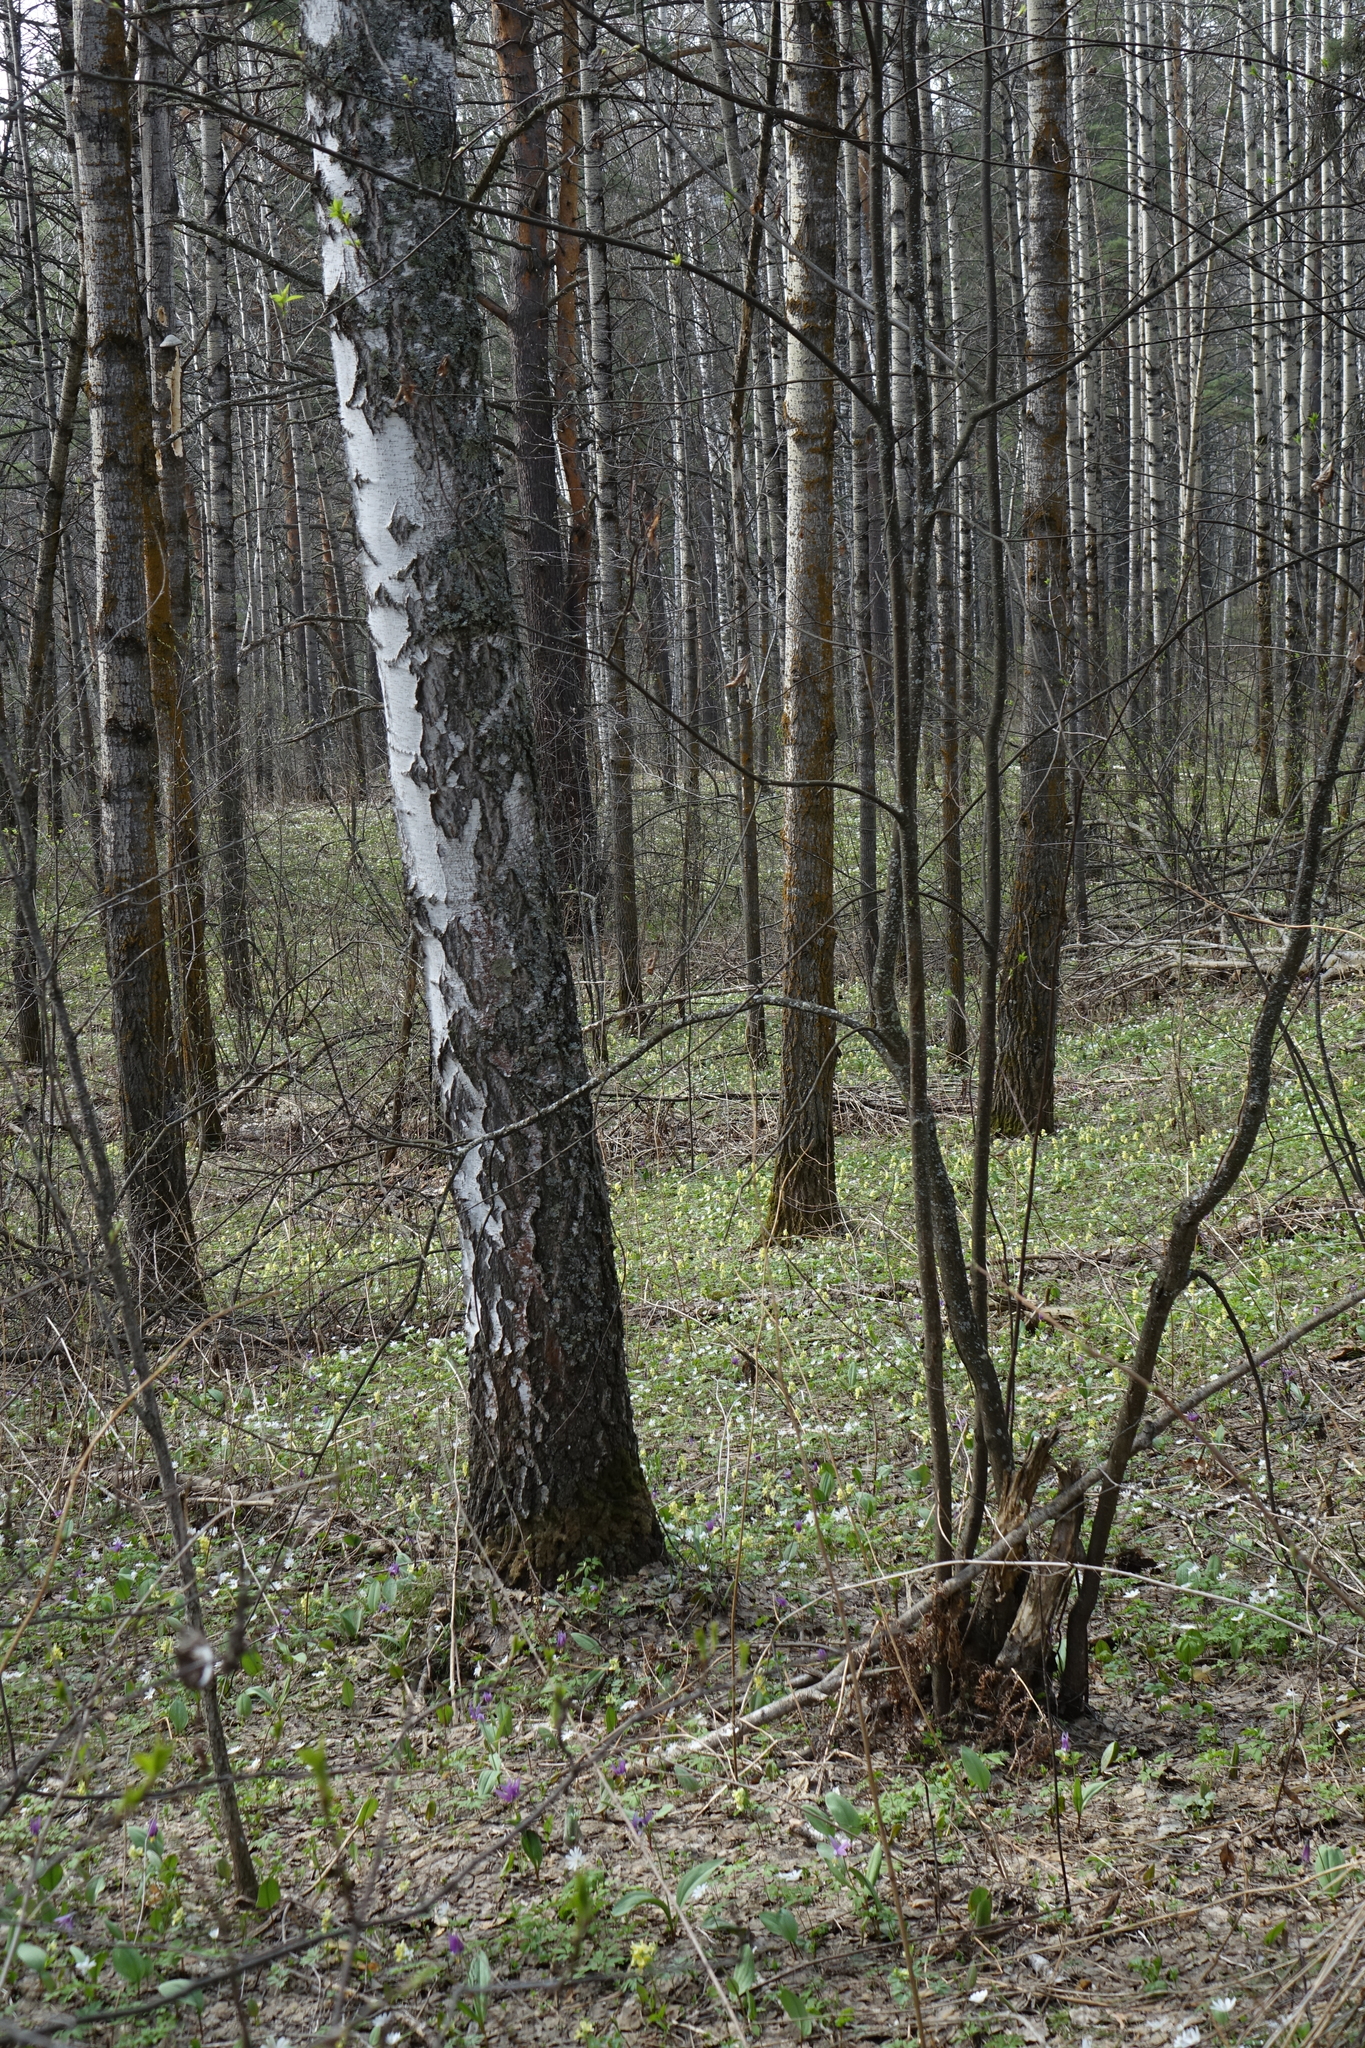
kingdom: Plantae
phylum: Tracheophyta
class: Magnoliopsida
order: Malpighiales
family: Salicaceae
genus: Populus
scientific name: Populus tremula
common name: European aspen
